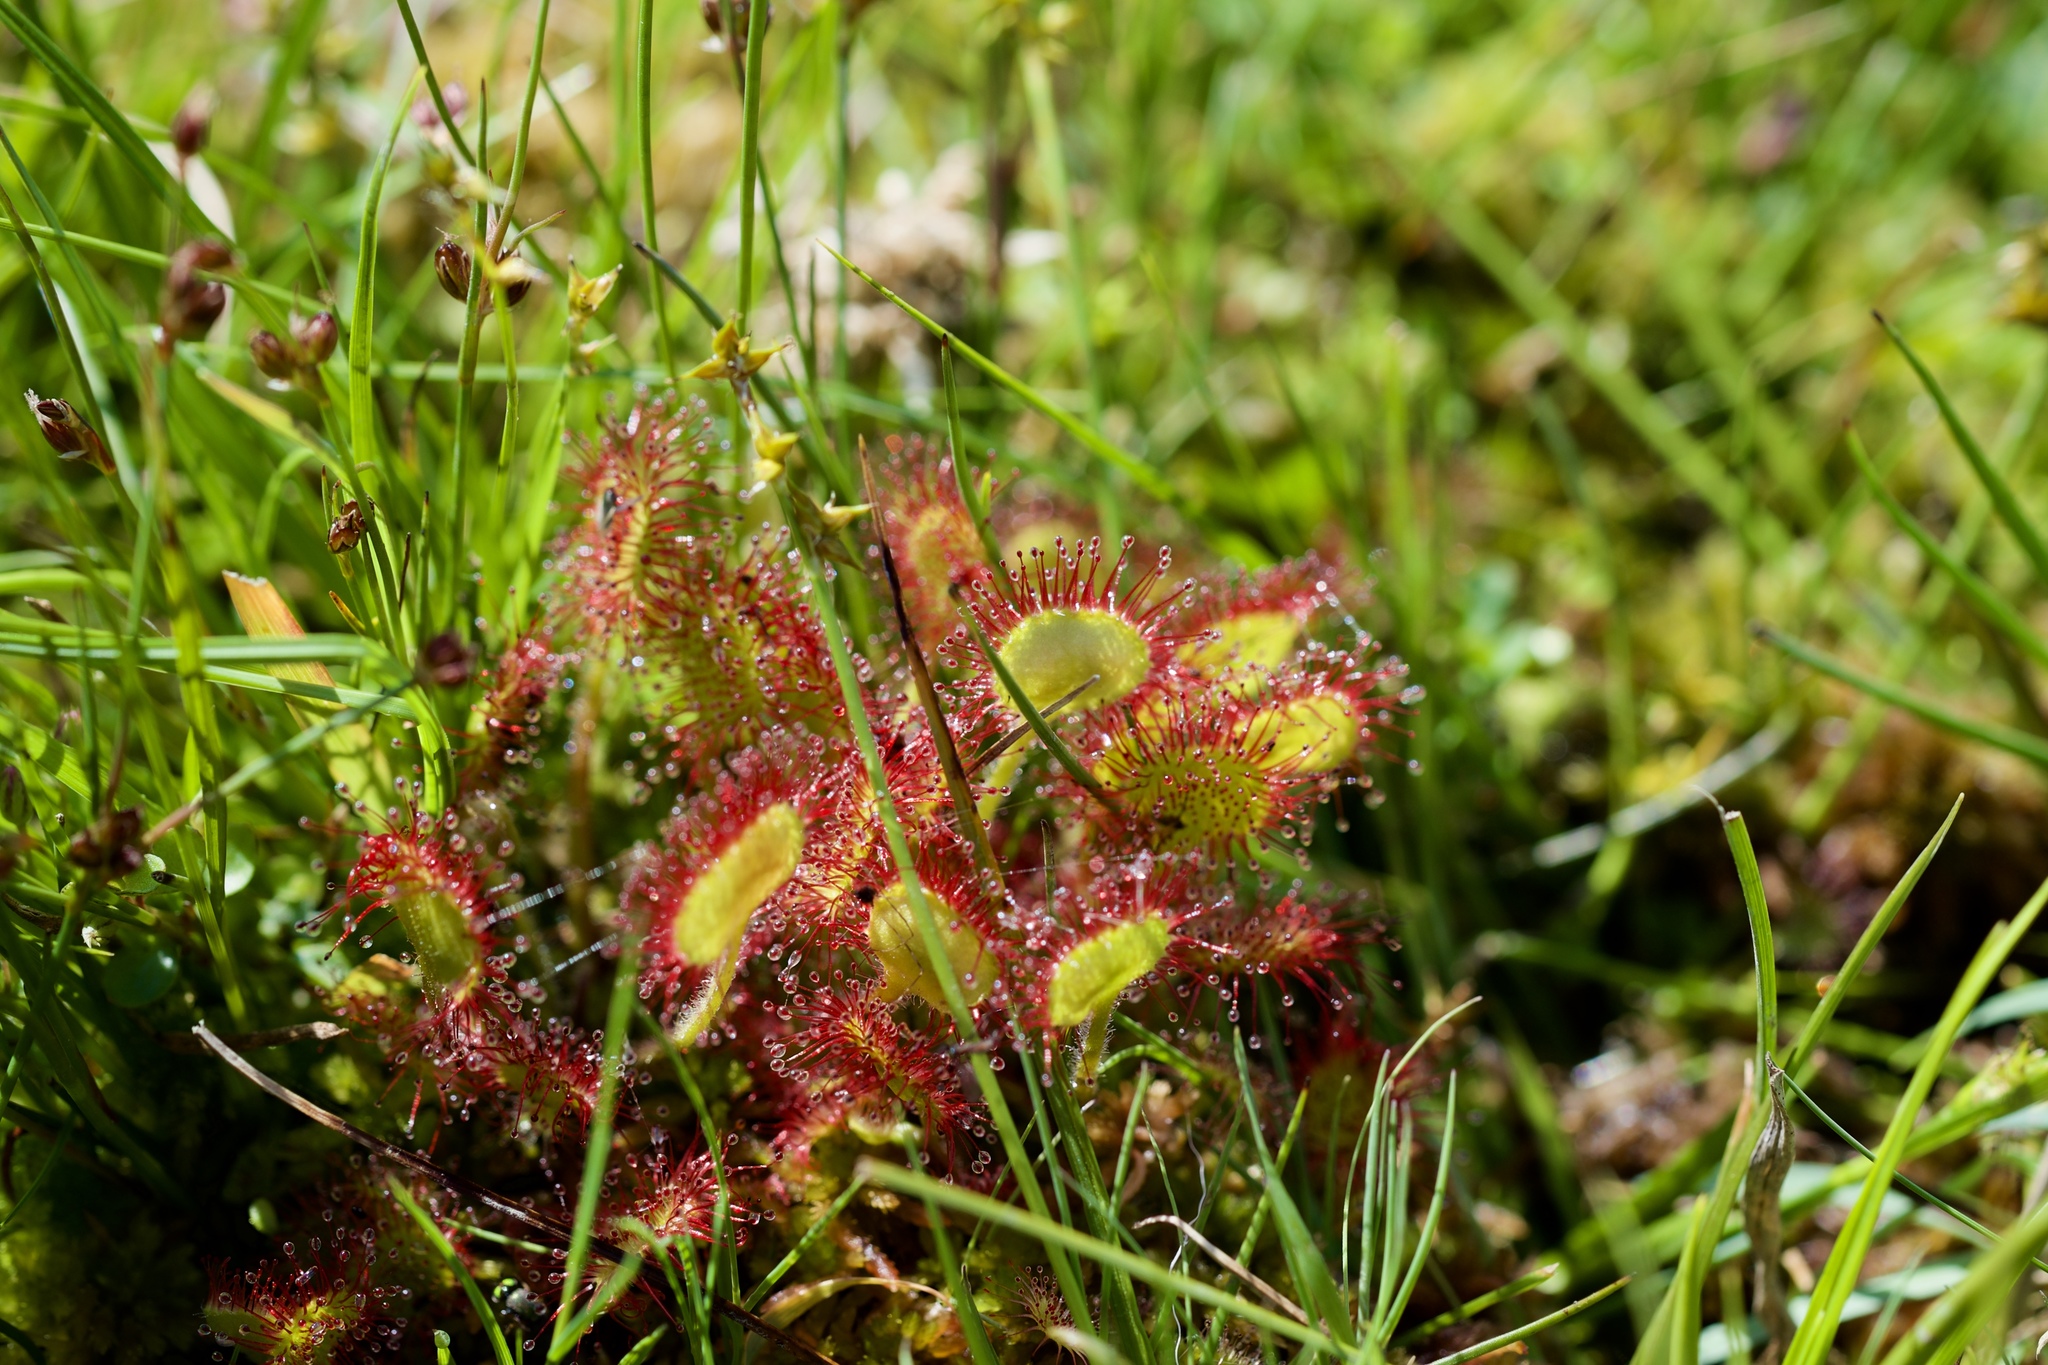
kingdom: Plantae
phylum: Tracheophyta
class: Magnoliopsida
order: Caryophyllales
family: Droseraceae
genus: Drosera
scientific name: Drosera rotundifolia
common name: Round-leaved sundew
